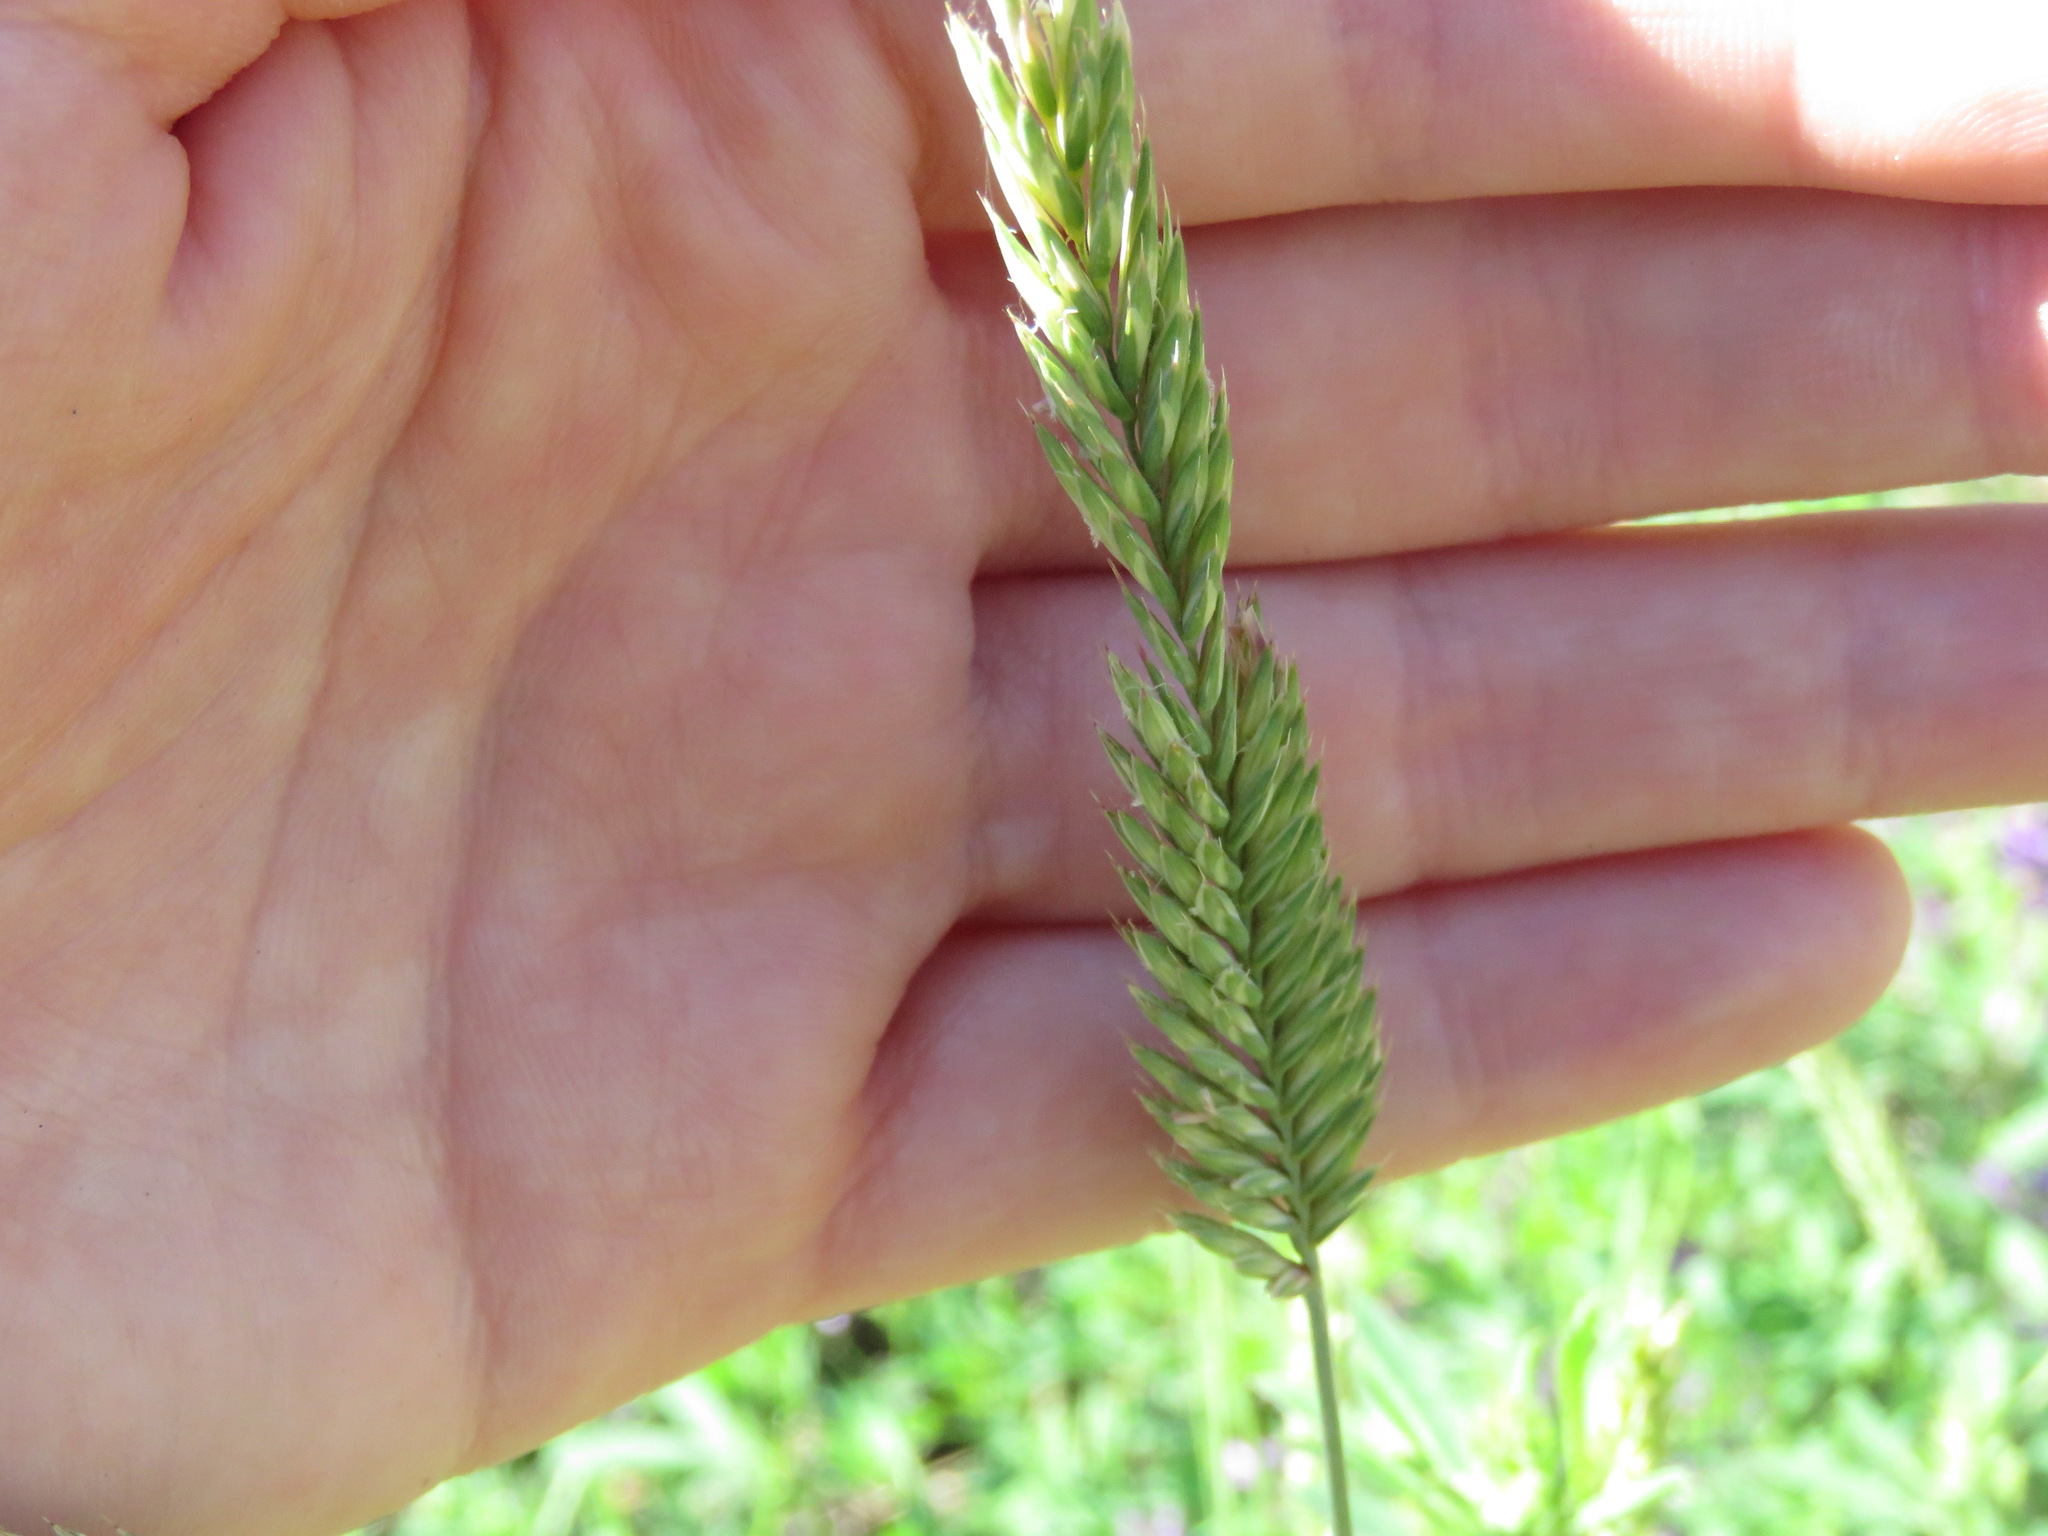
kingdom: Plantae
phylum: Tracheophyta
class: Liliopsida
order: Poales
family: Poaceae
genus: Agropyron
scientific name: Agropyron cristatum
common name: Crested wheatgrass
